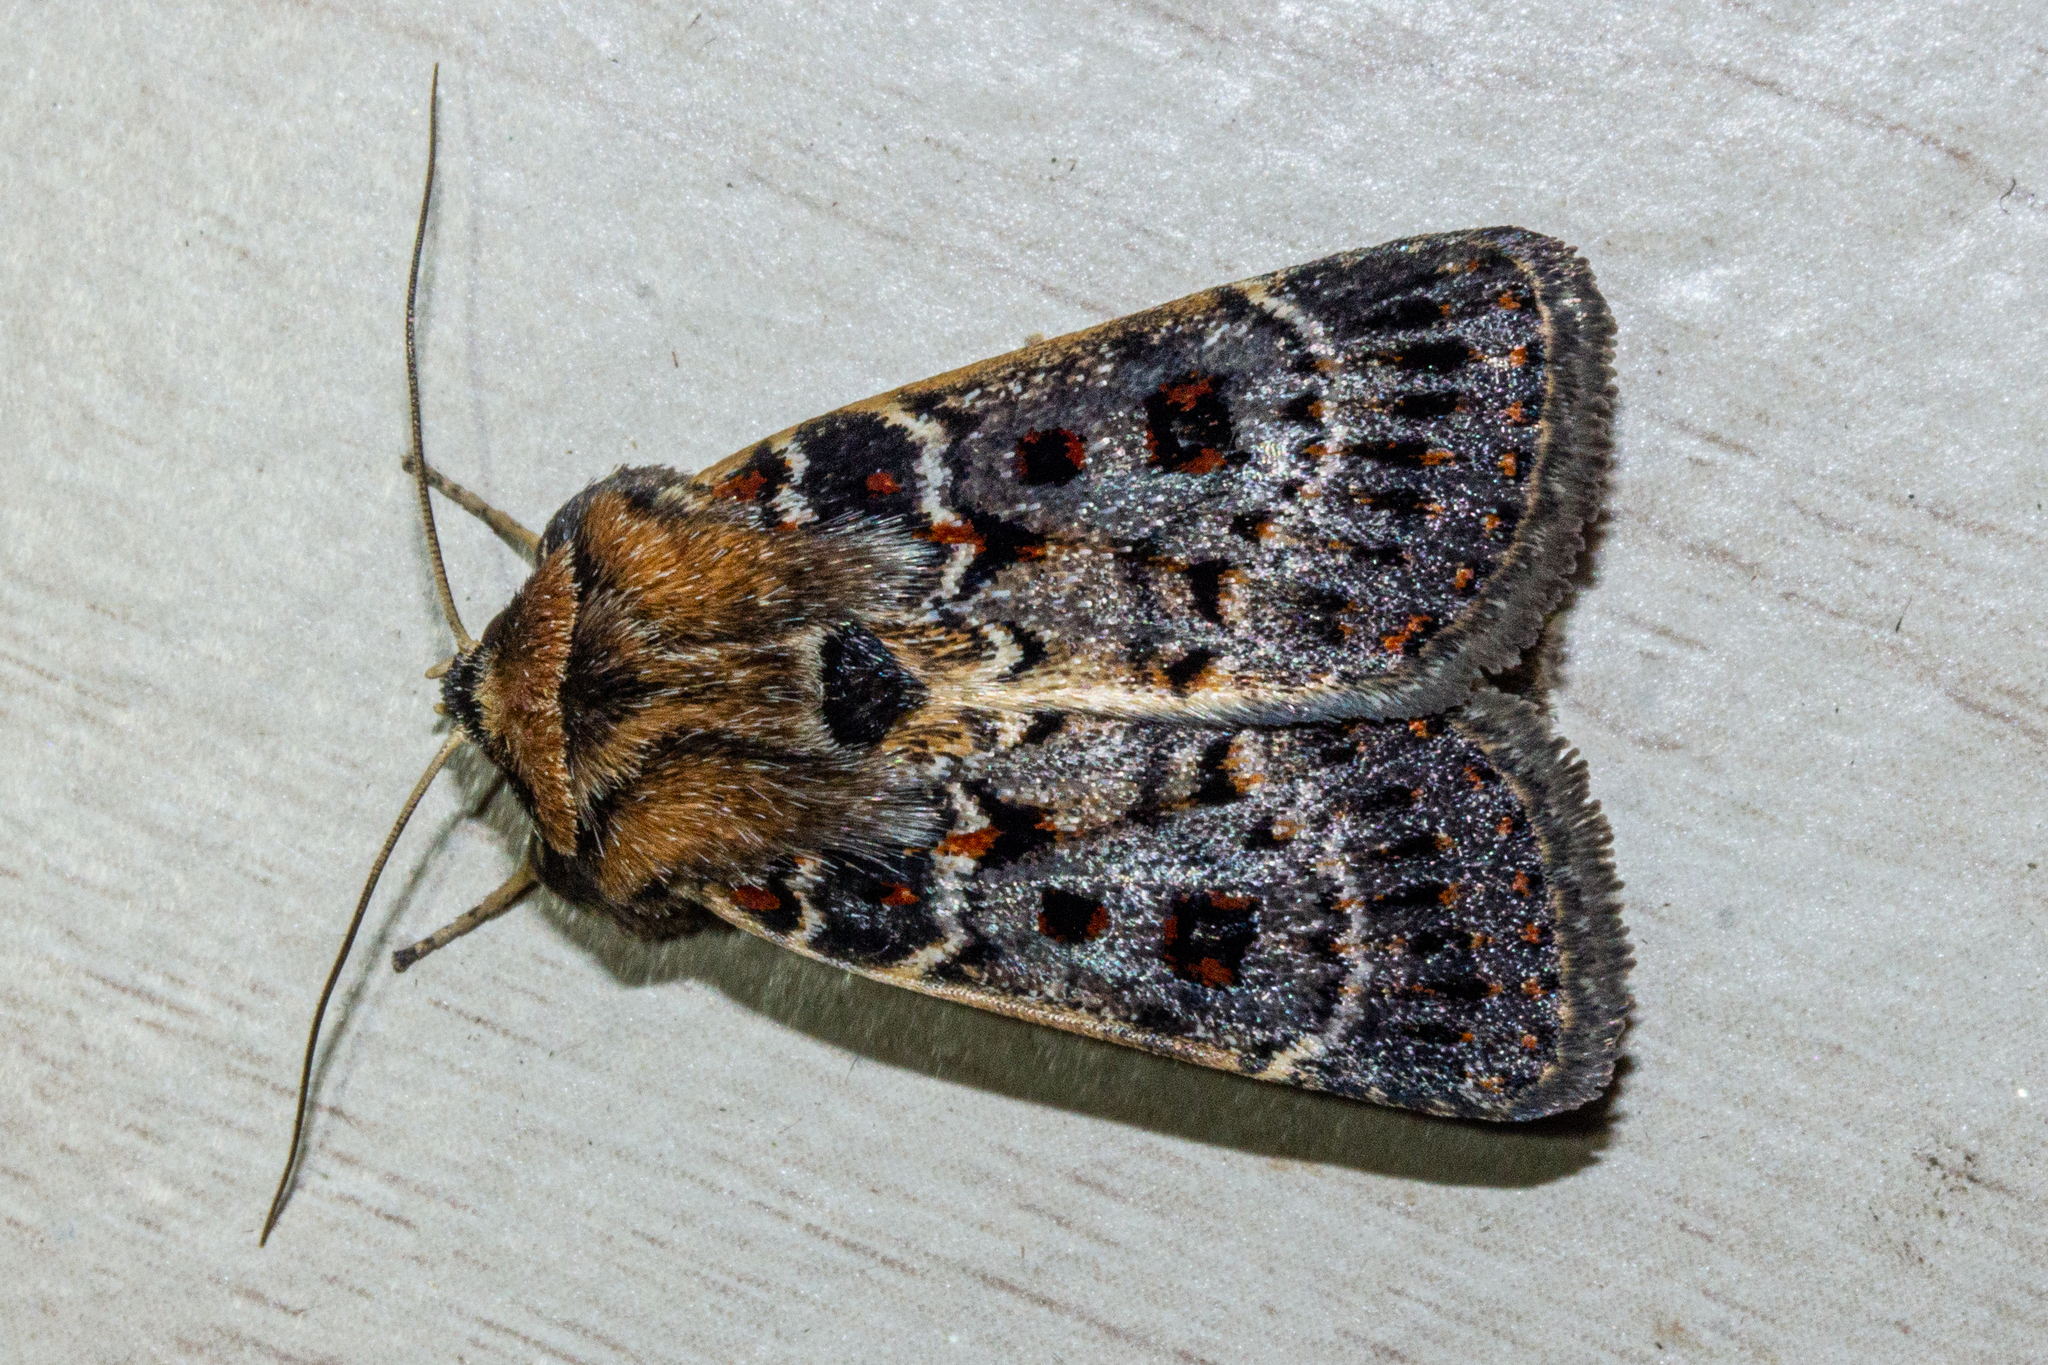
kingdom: Animalia
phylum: Arthropoda
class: Insecta
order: Lepidoptera
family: Noctuidae
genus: Proteuxoa
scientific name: Proteuxoa sanguinipuncta
